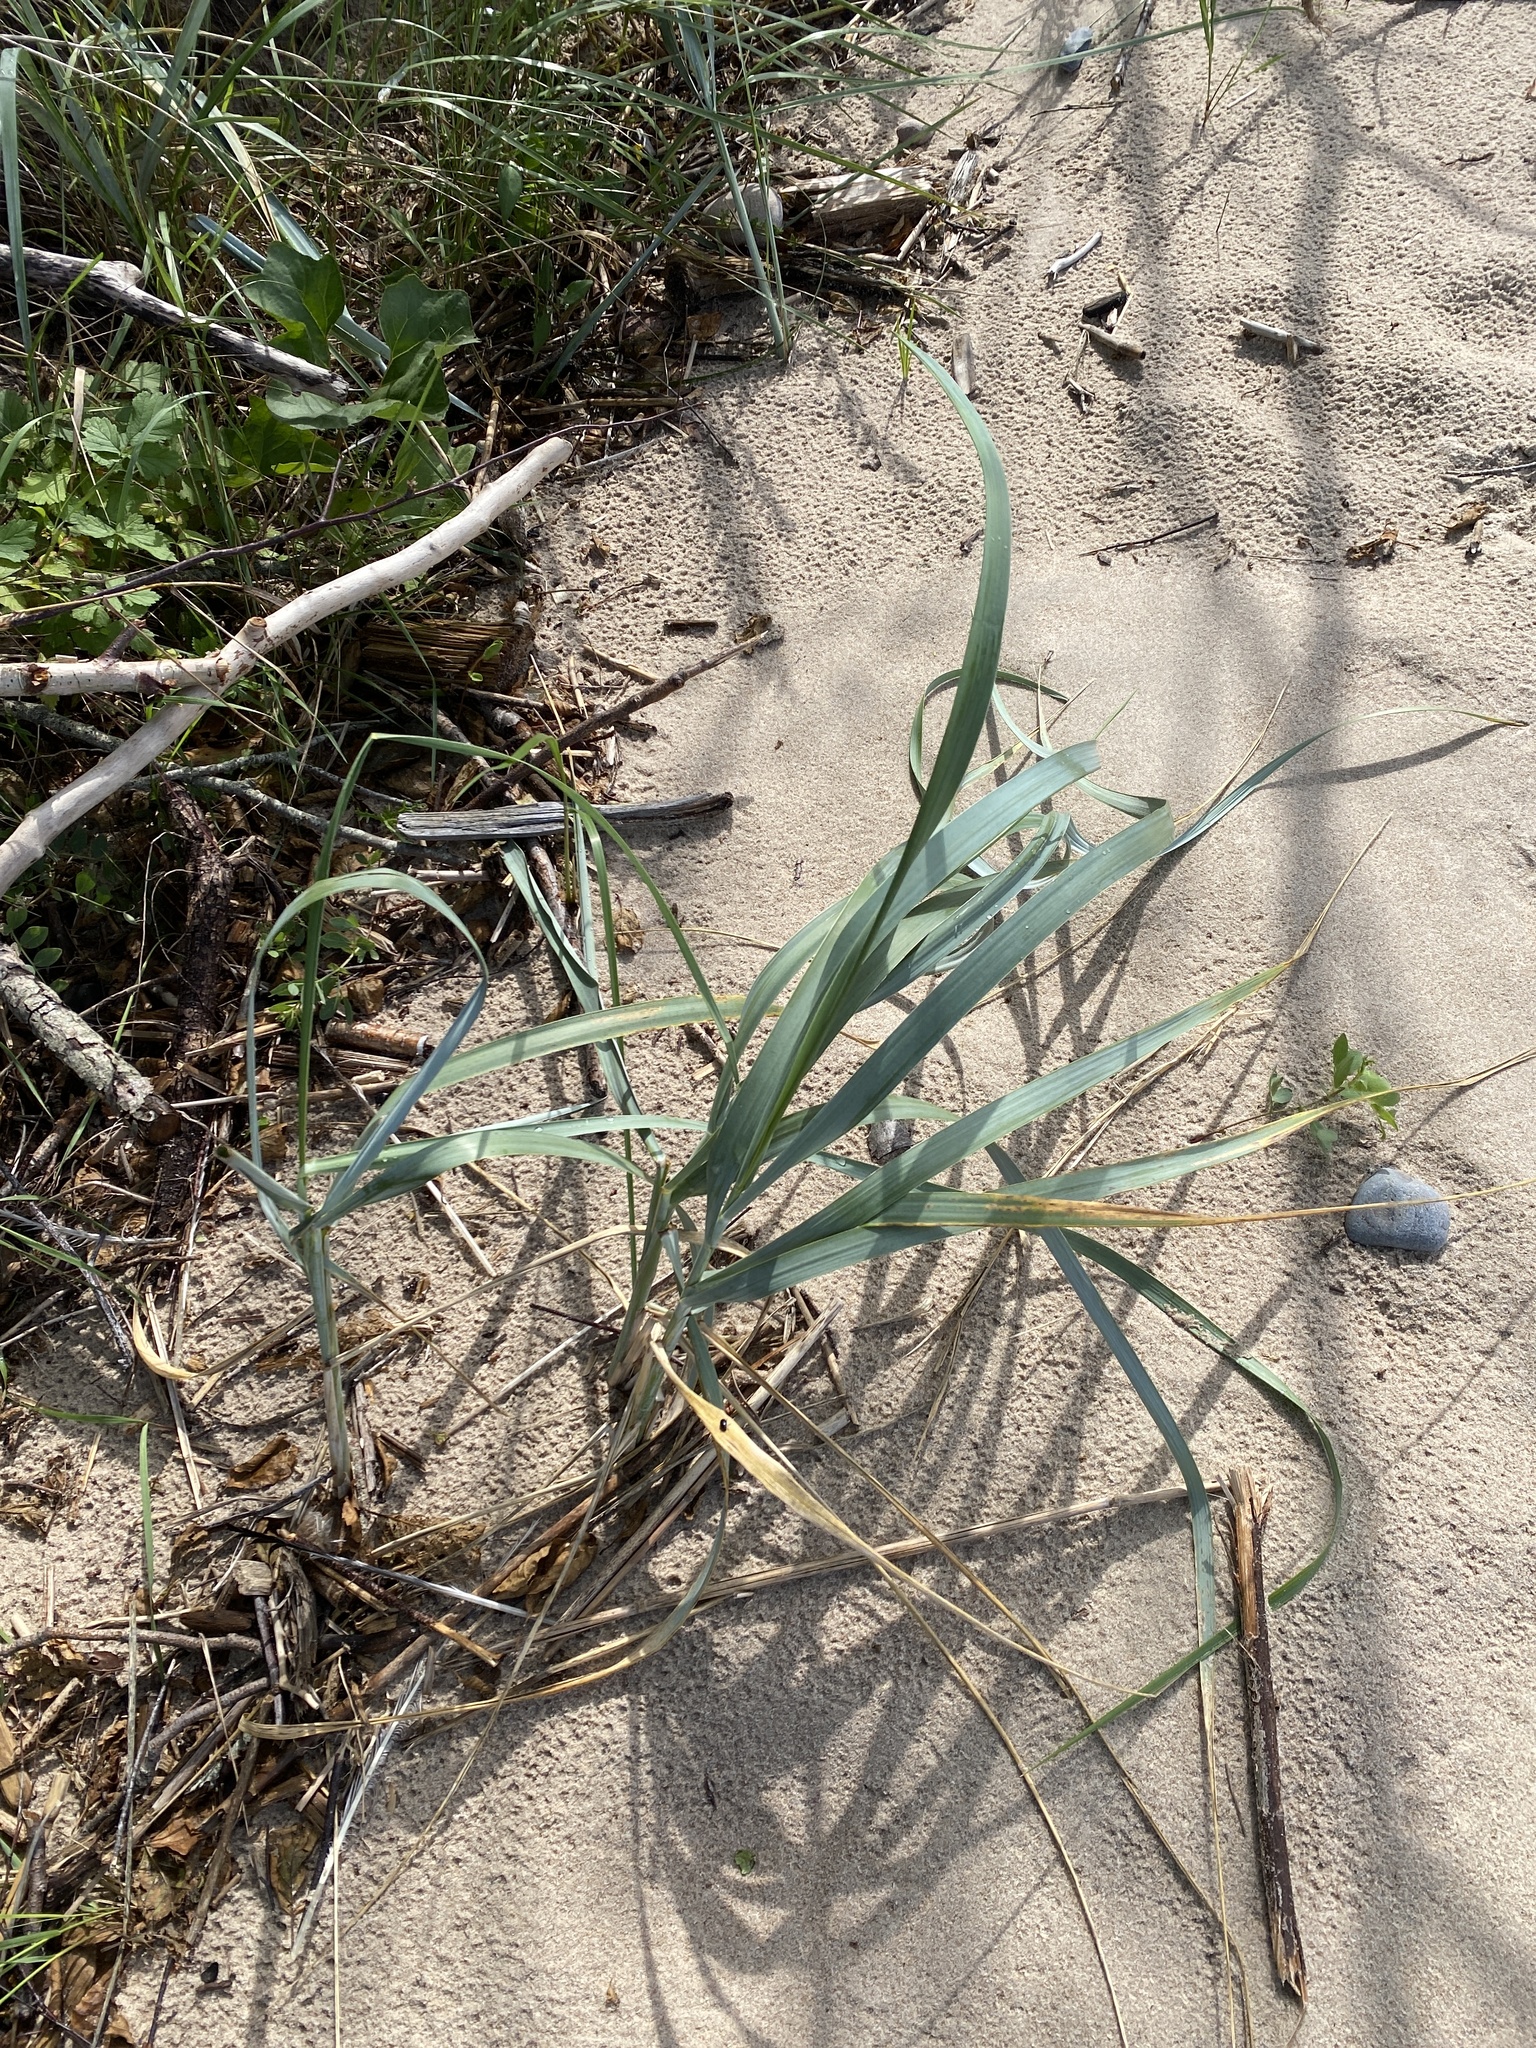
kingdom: Plantae
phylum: Tracheophyta
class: Liliopsida
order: Poales
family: Poaceae
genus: Leymus
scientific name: Leymus arenarius
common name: Lyme-grass
